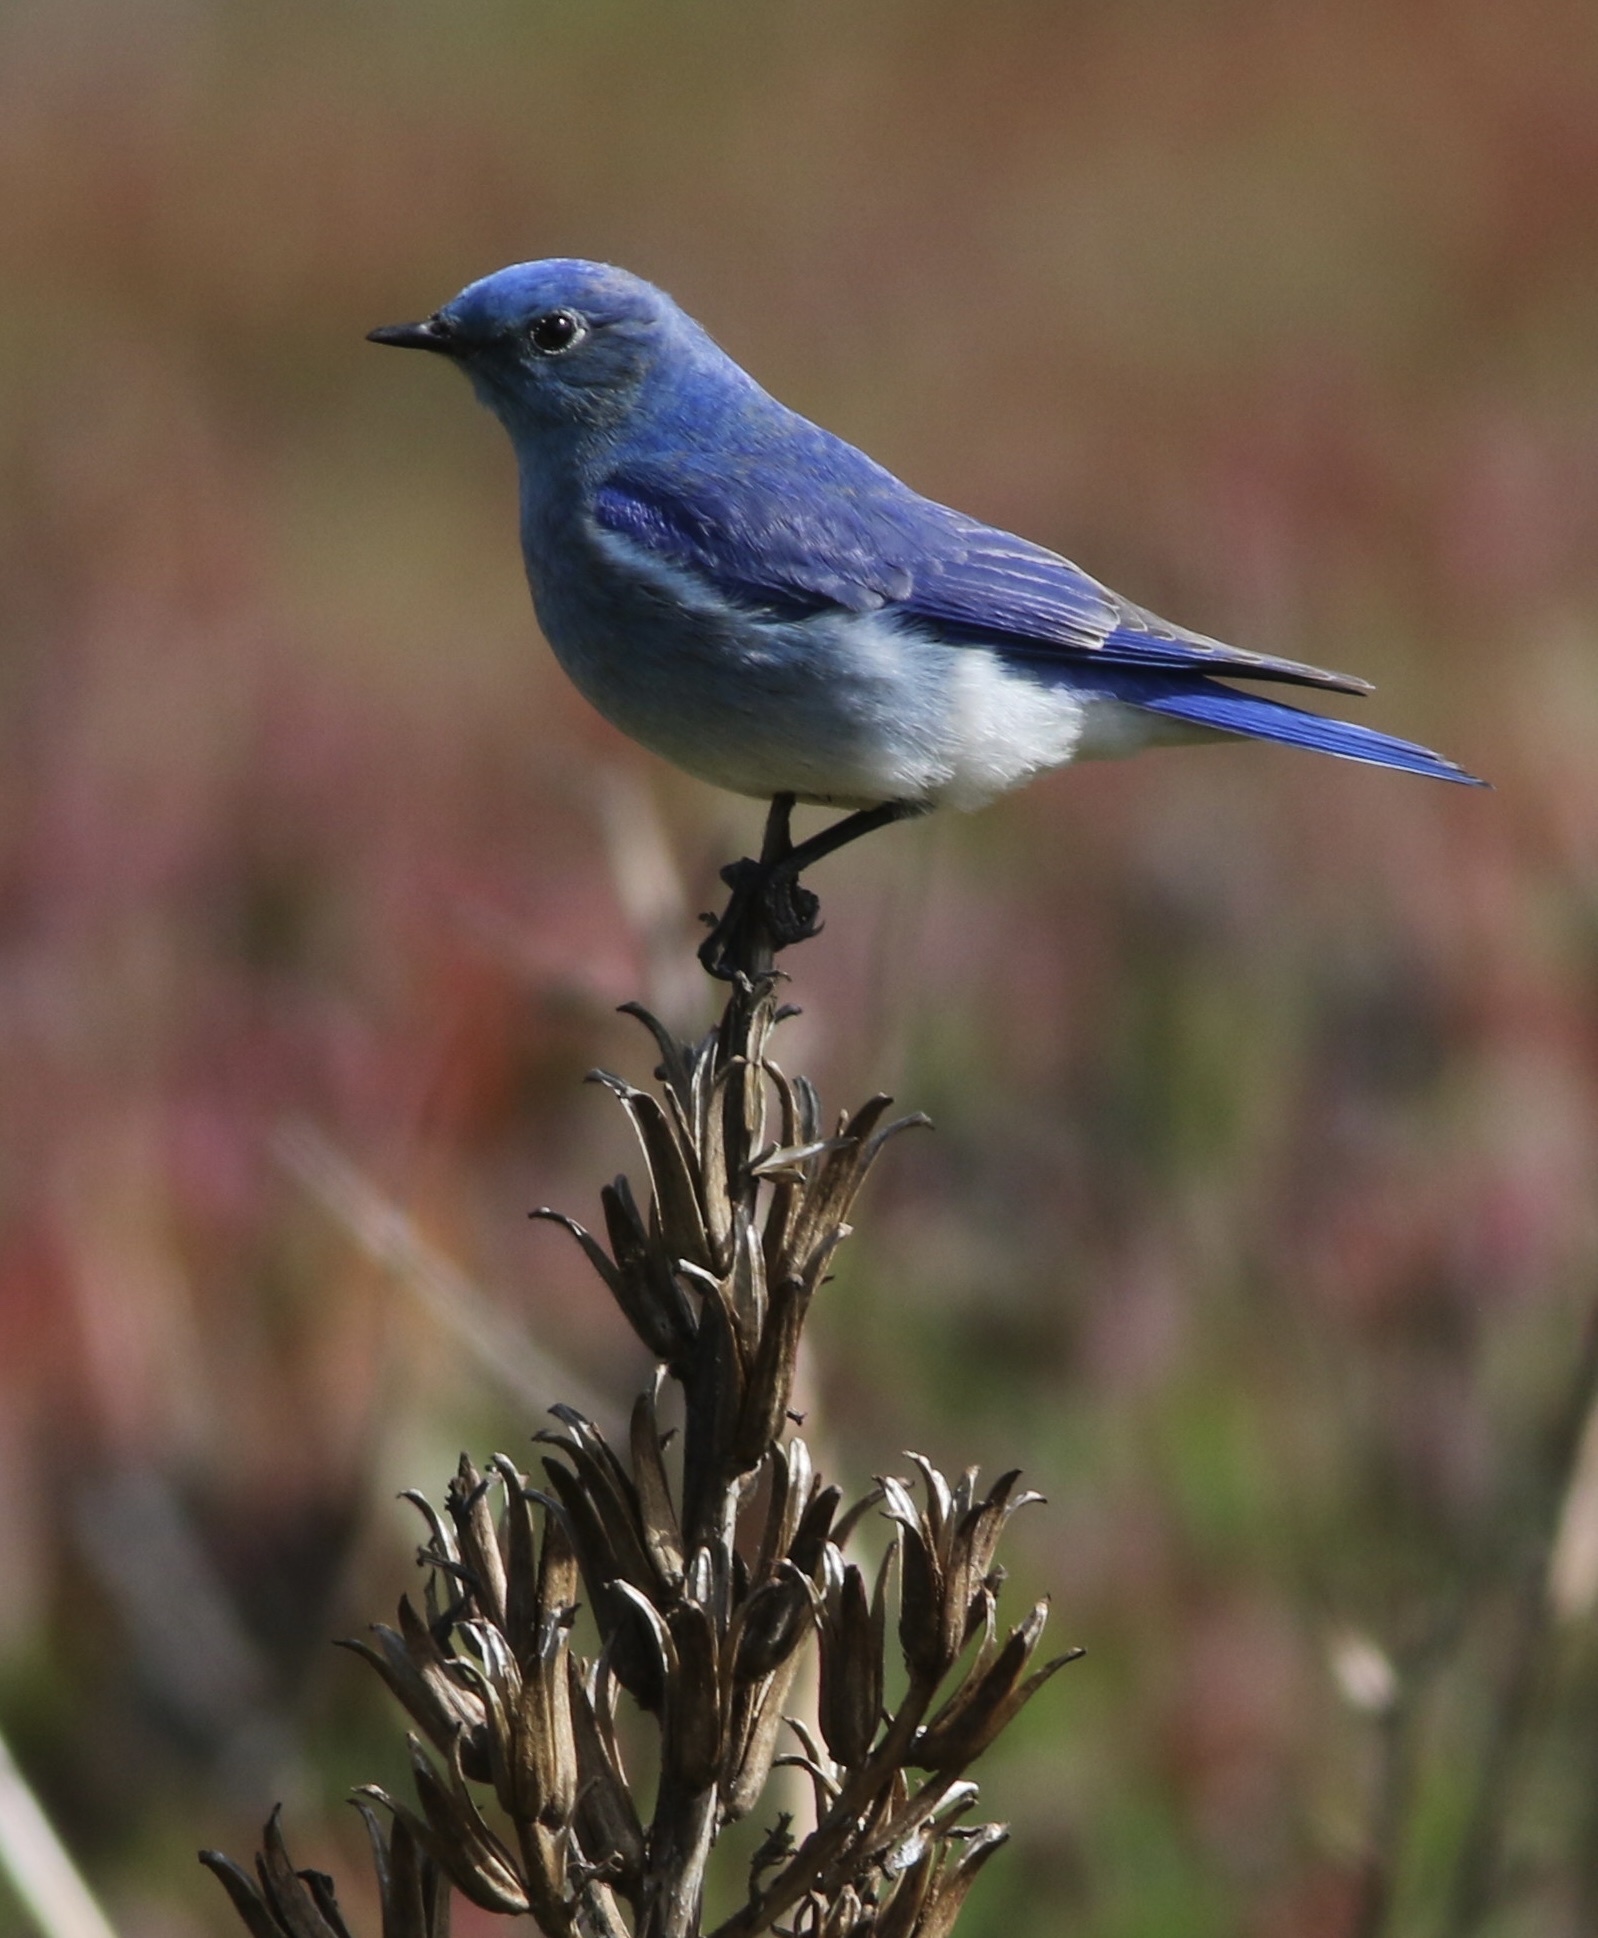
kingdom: Animalia
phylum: Chordata
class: Aves
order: Passeriformes
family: Turdidae
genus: Sialia
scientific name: Sialia currucoides
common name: Mountain bluebird
